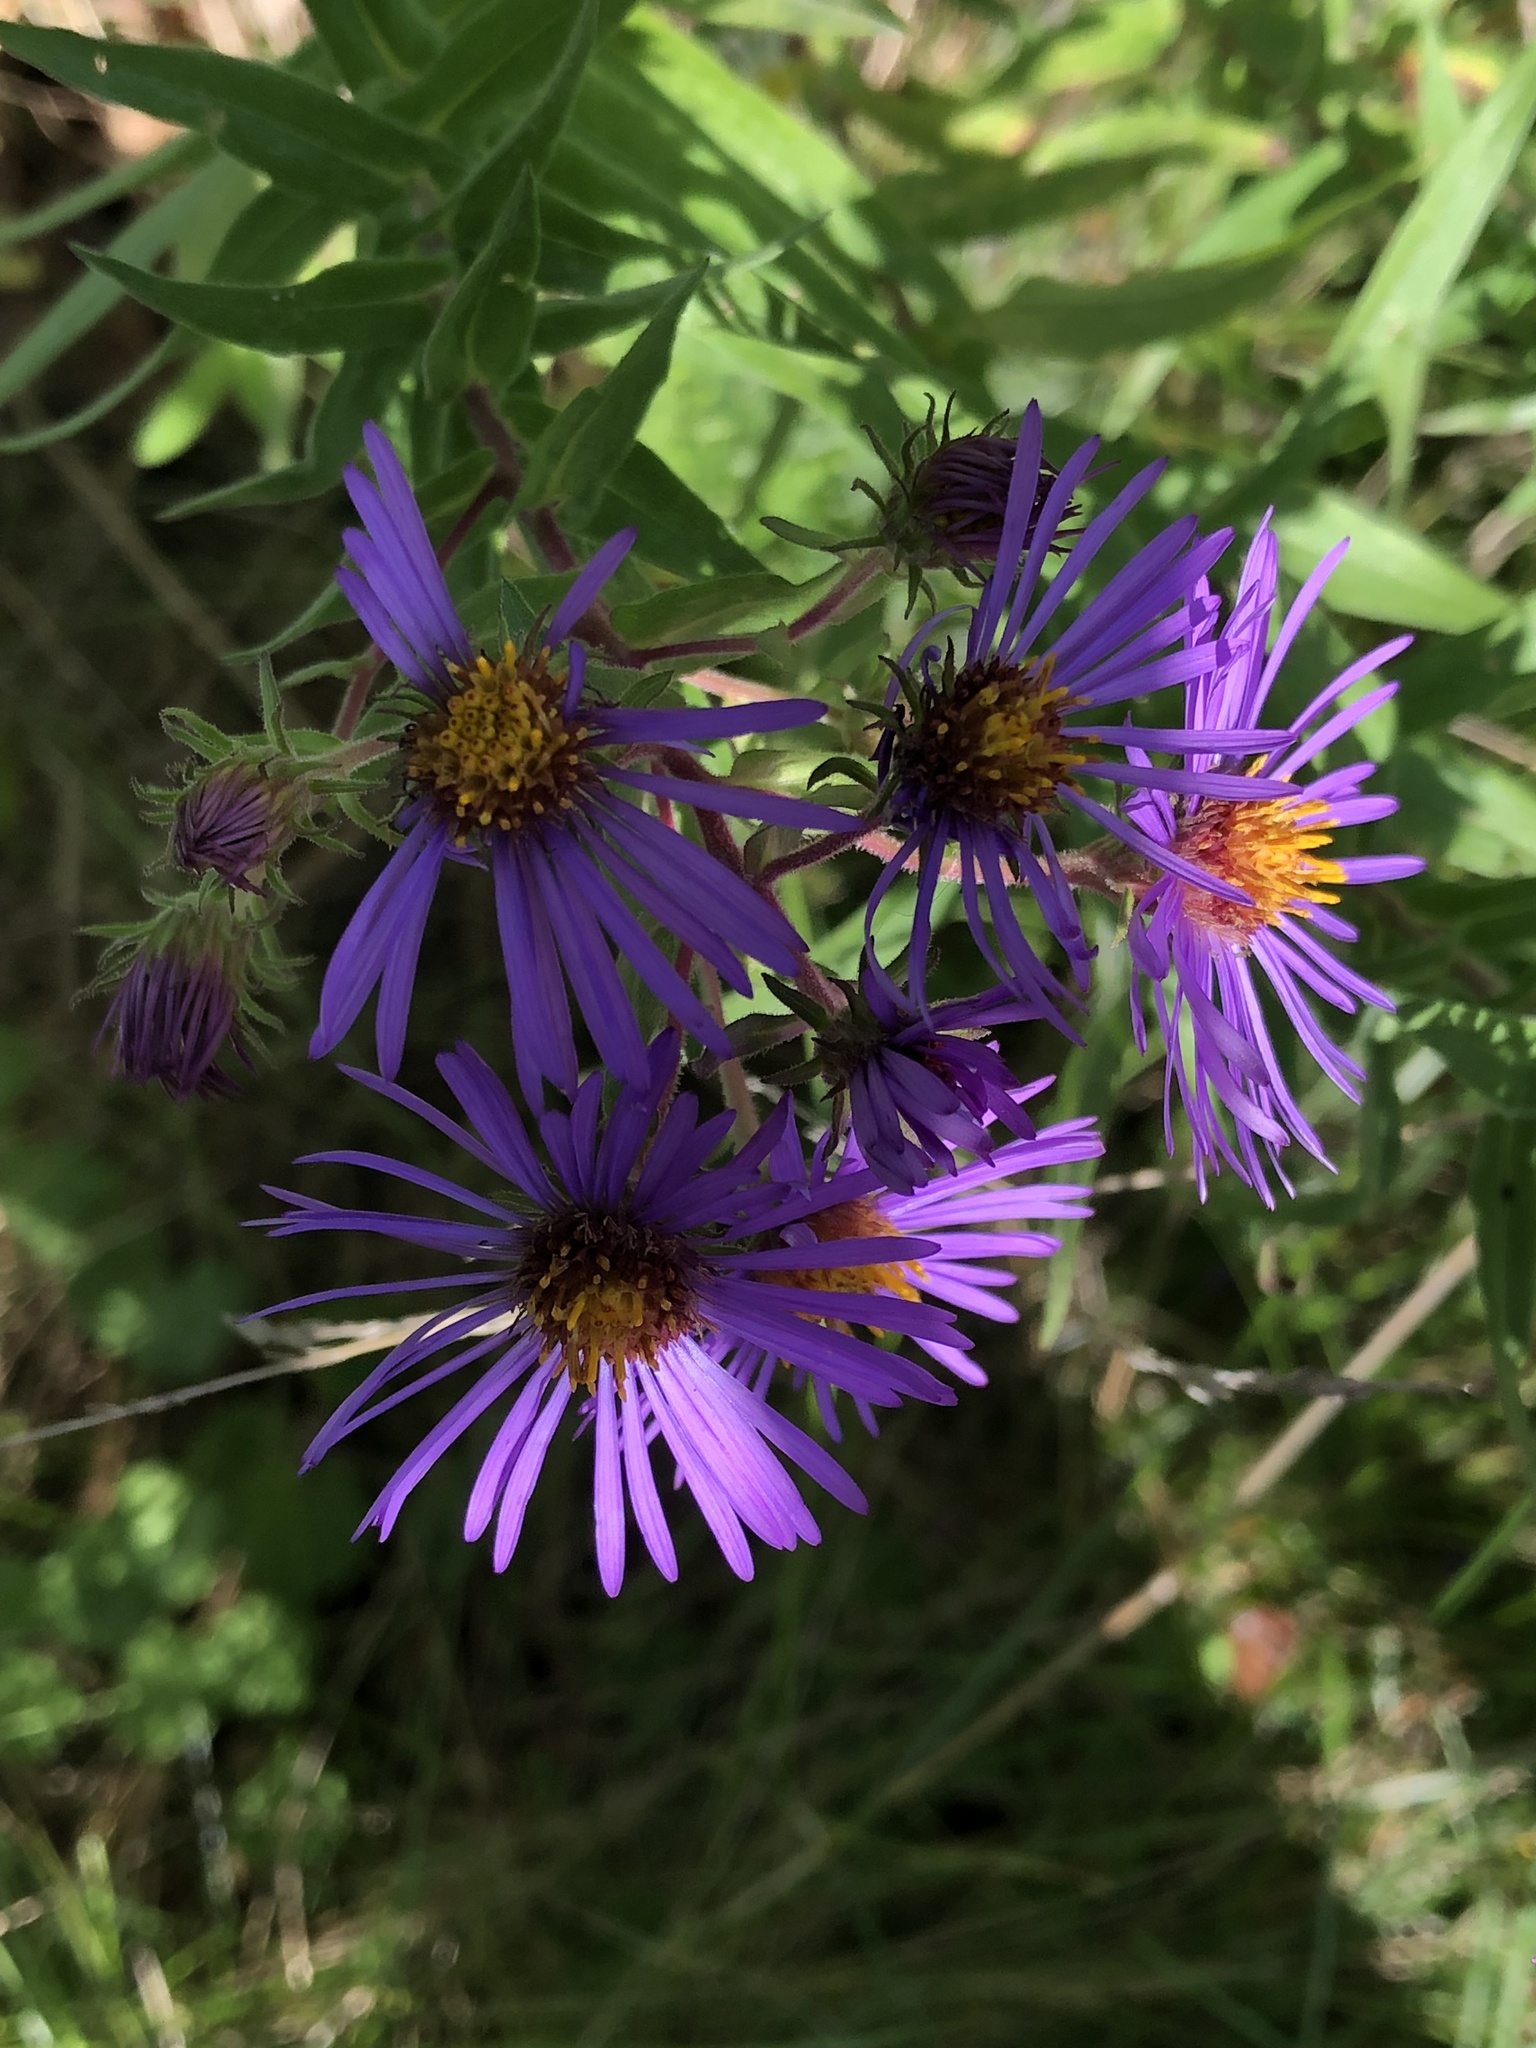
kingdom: Plantae
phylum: Tracheophyta
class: Magnoliopsida
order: Asterales
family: Asteraceae
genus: Symphyotrichum
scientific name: Symphyotrichum novae-angliae
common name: Michaelmas daisy
